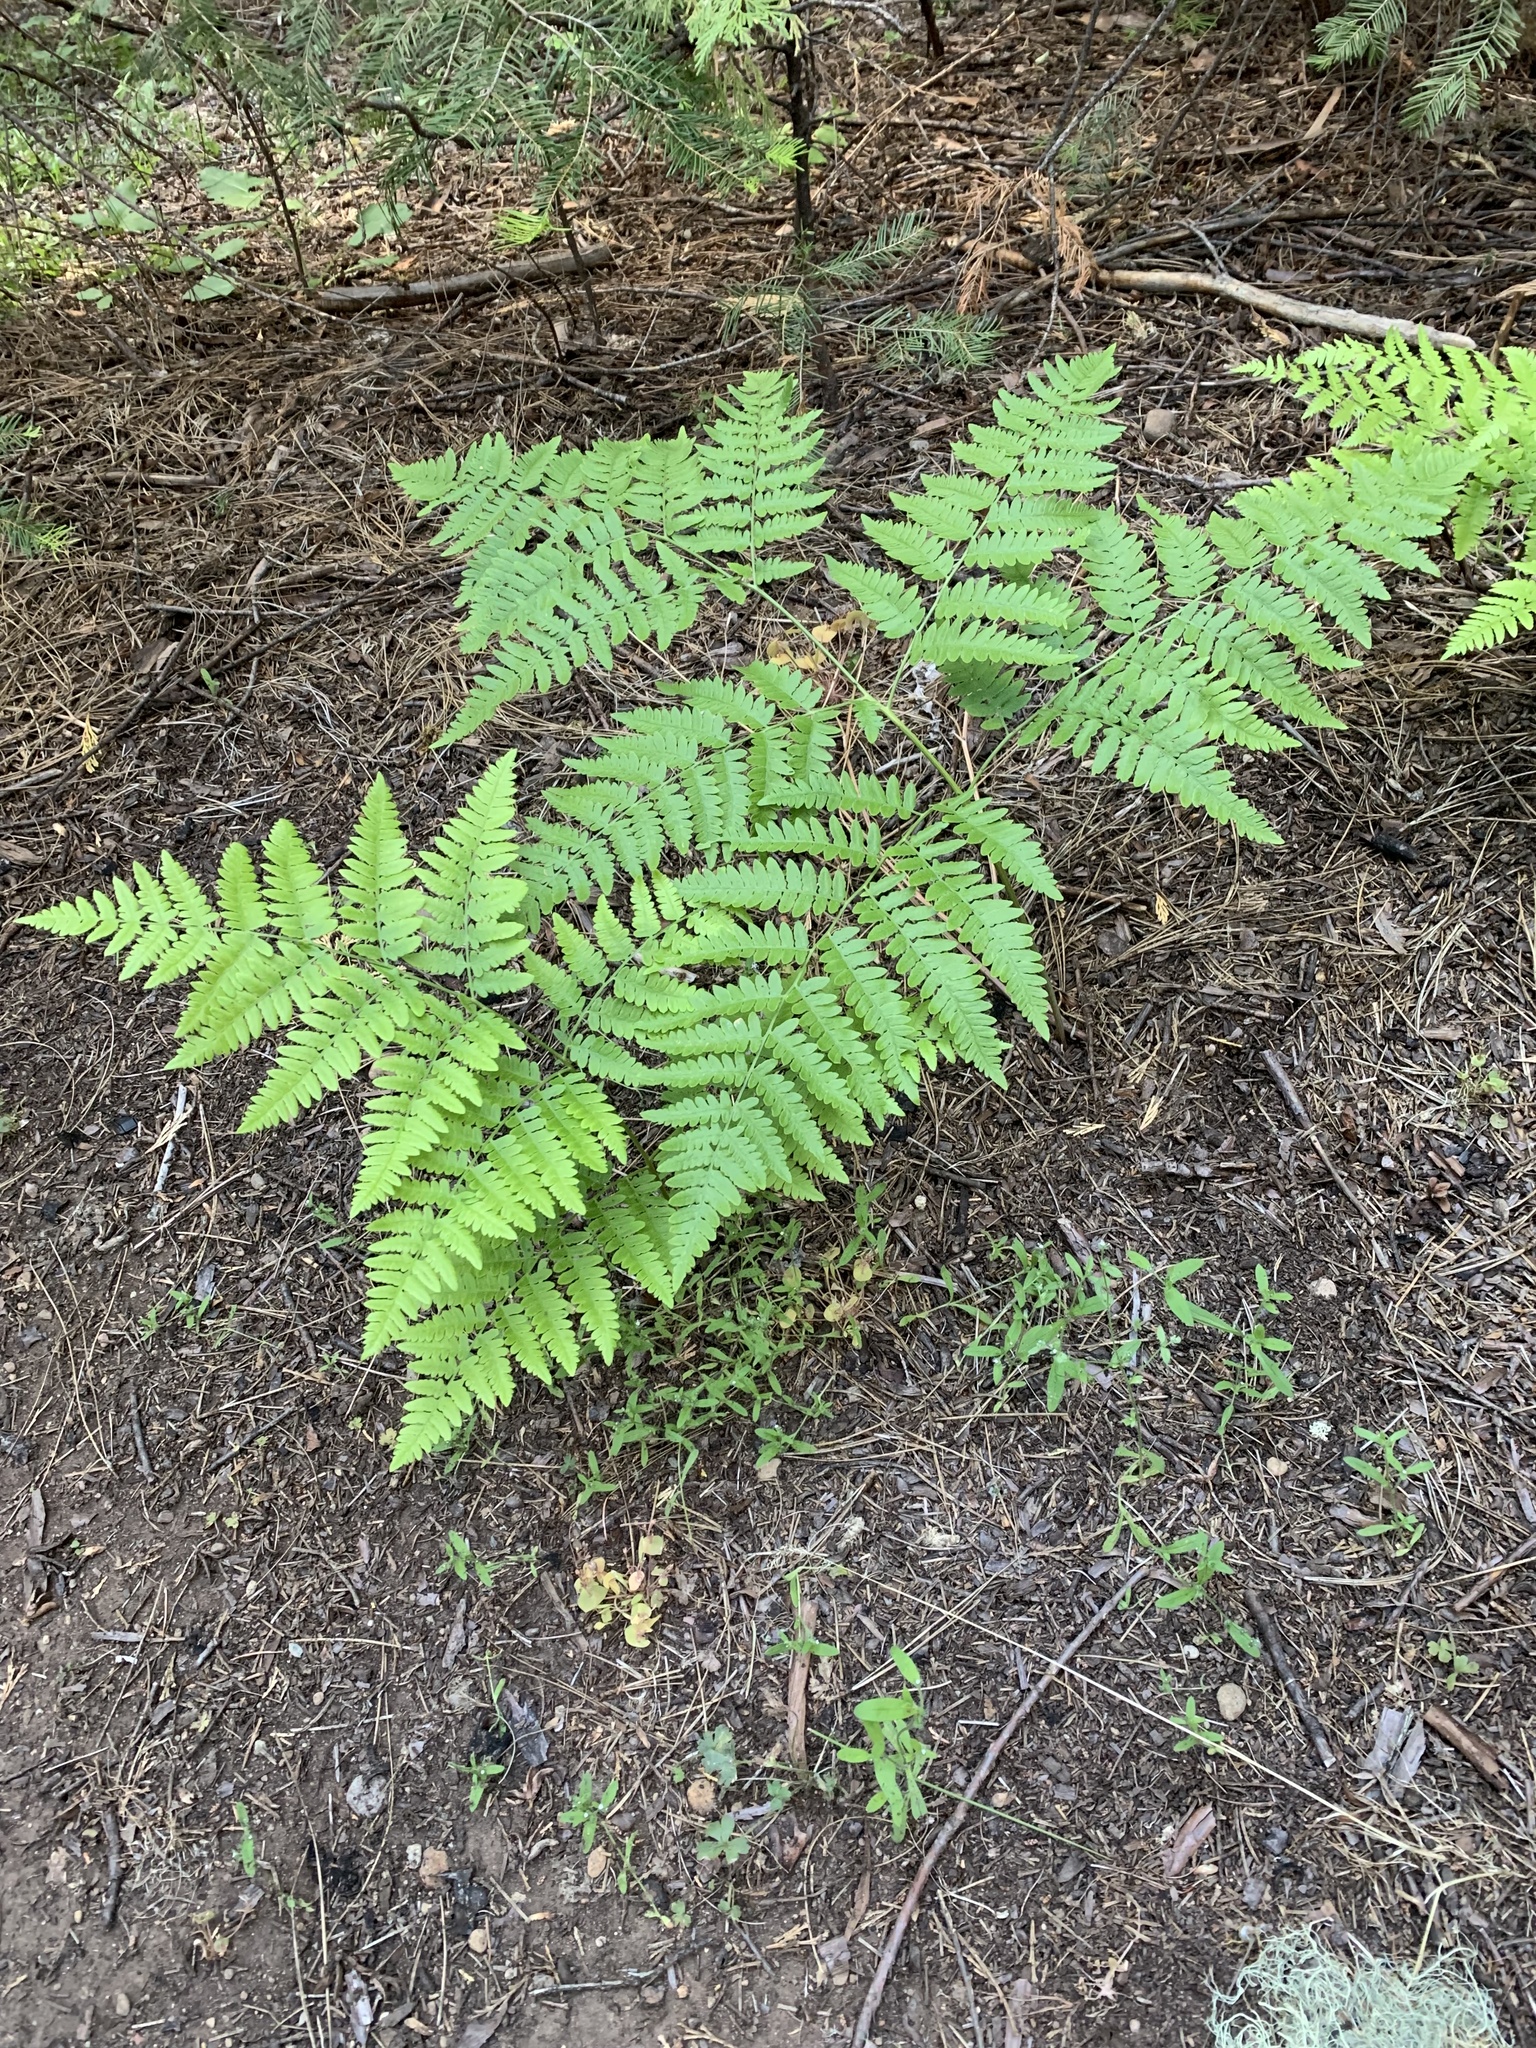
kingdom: Plantae
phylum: Tracheophyta
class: Polypodiopsida
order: Polypodiales
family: Dennstaedtiaceae
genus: Pteridium
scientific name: Pteridium aquilinum
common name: Bracken
